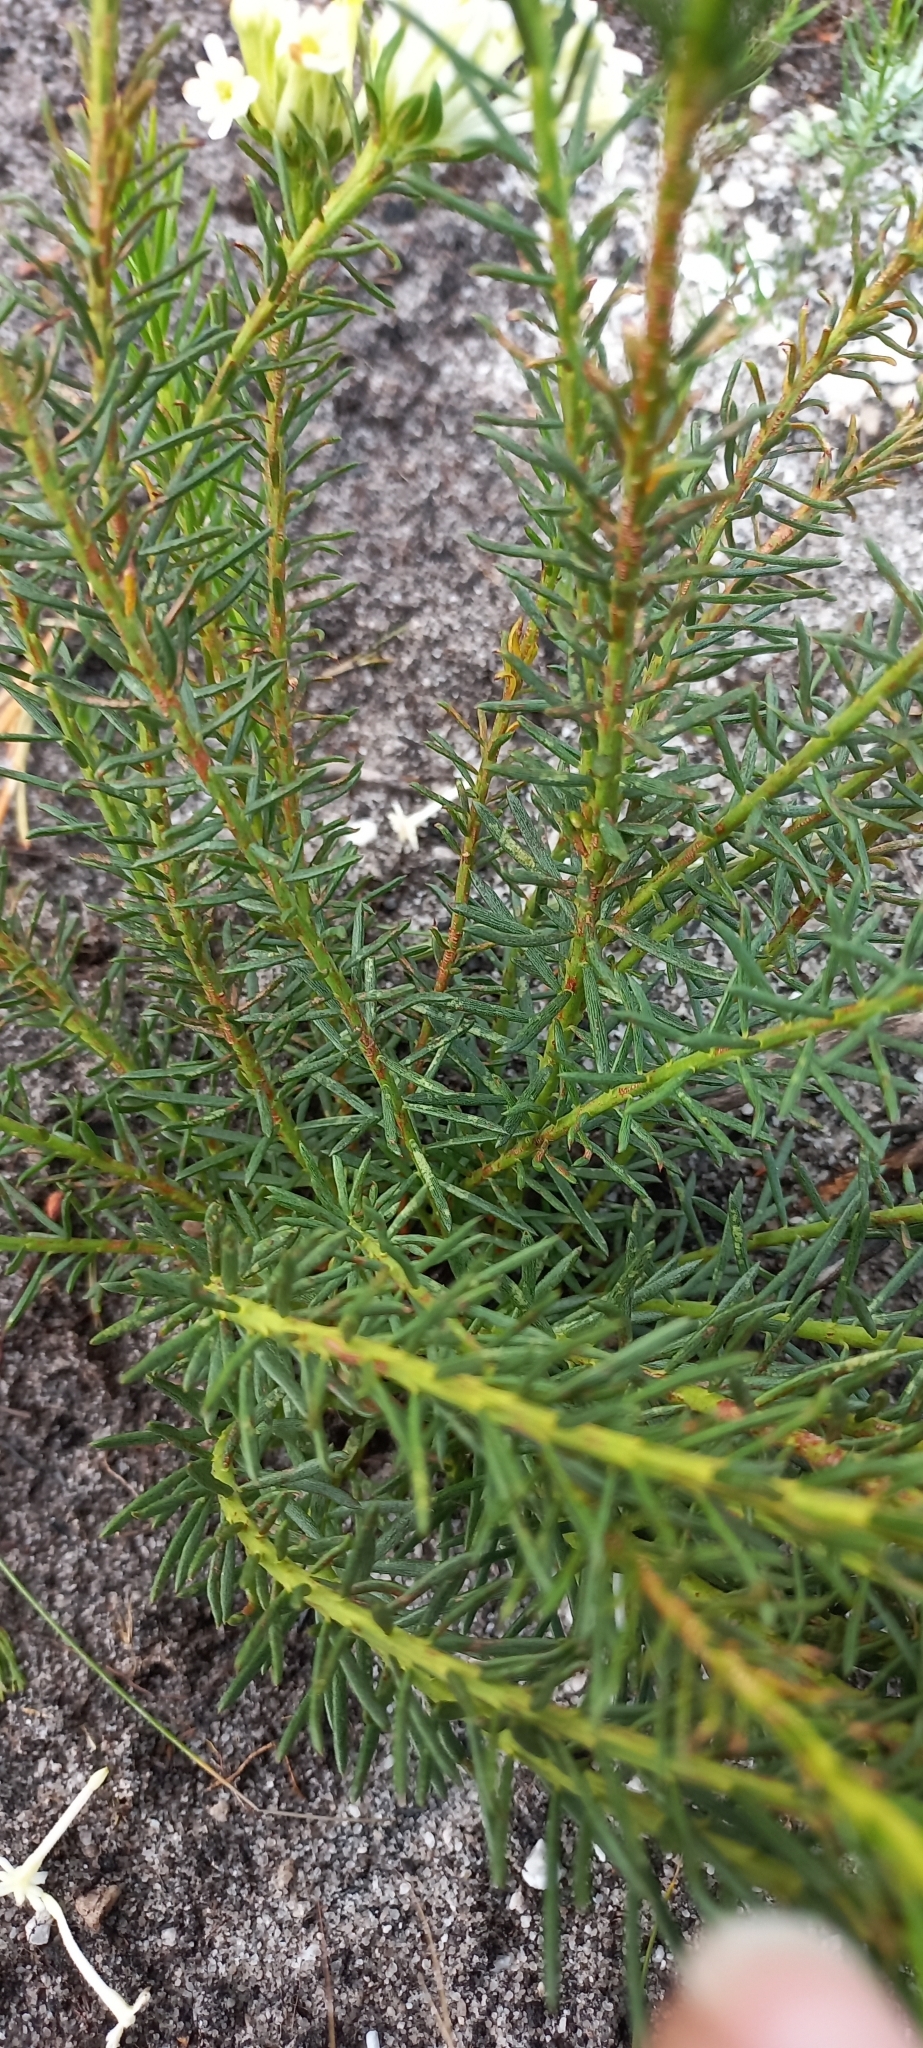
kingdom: Plantae
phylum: Tracheophyta
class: Magnoliopsida
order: Malvales
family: Thymelaeaceae
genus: Gnidia
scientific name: Gnidia pinifolia
